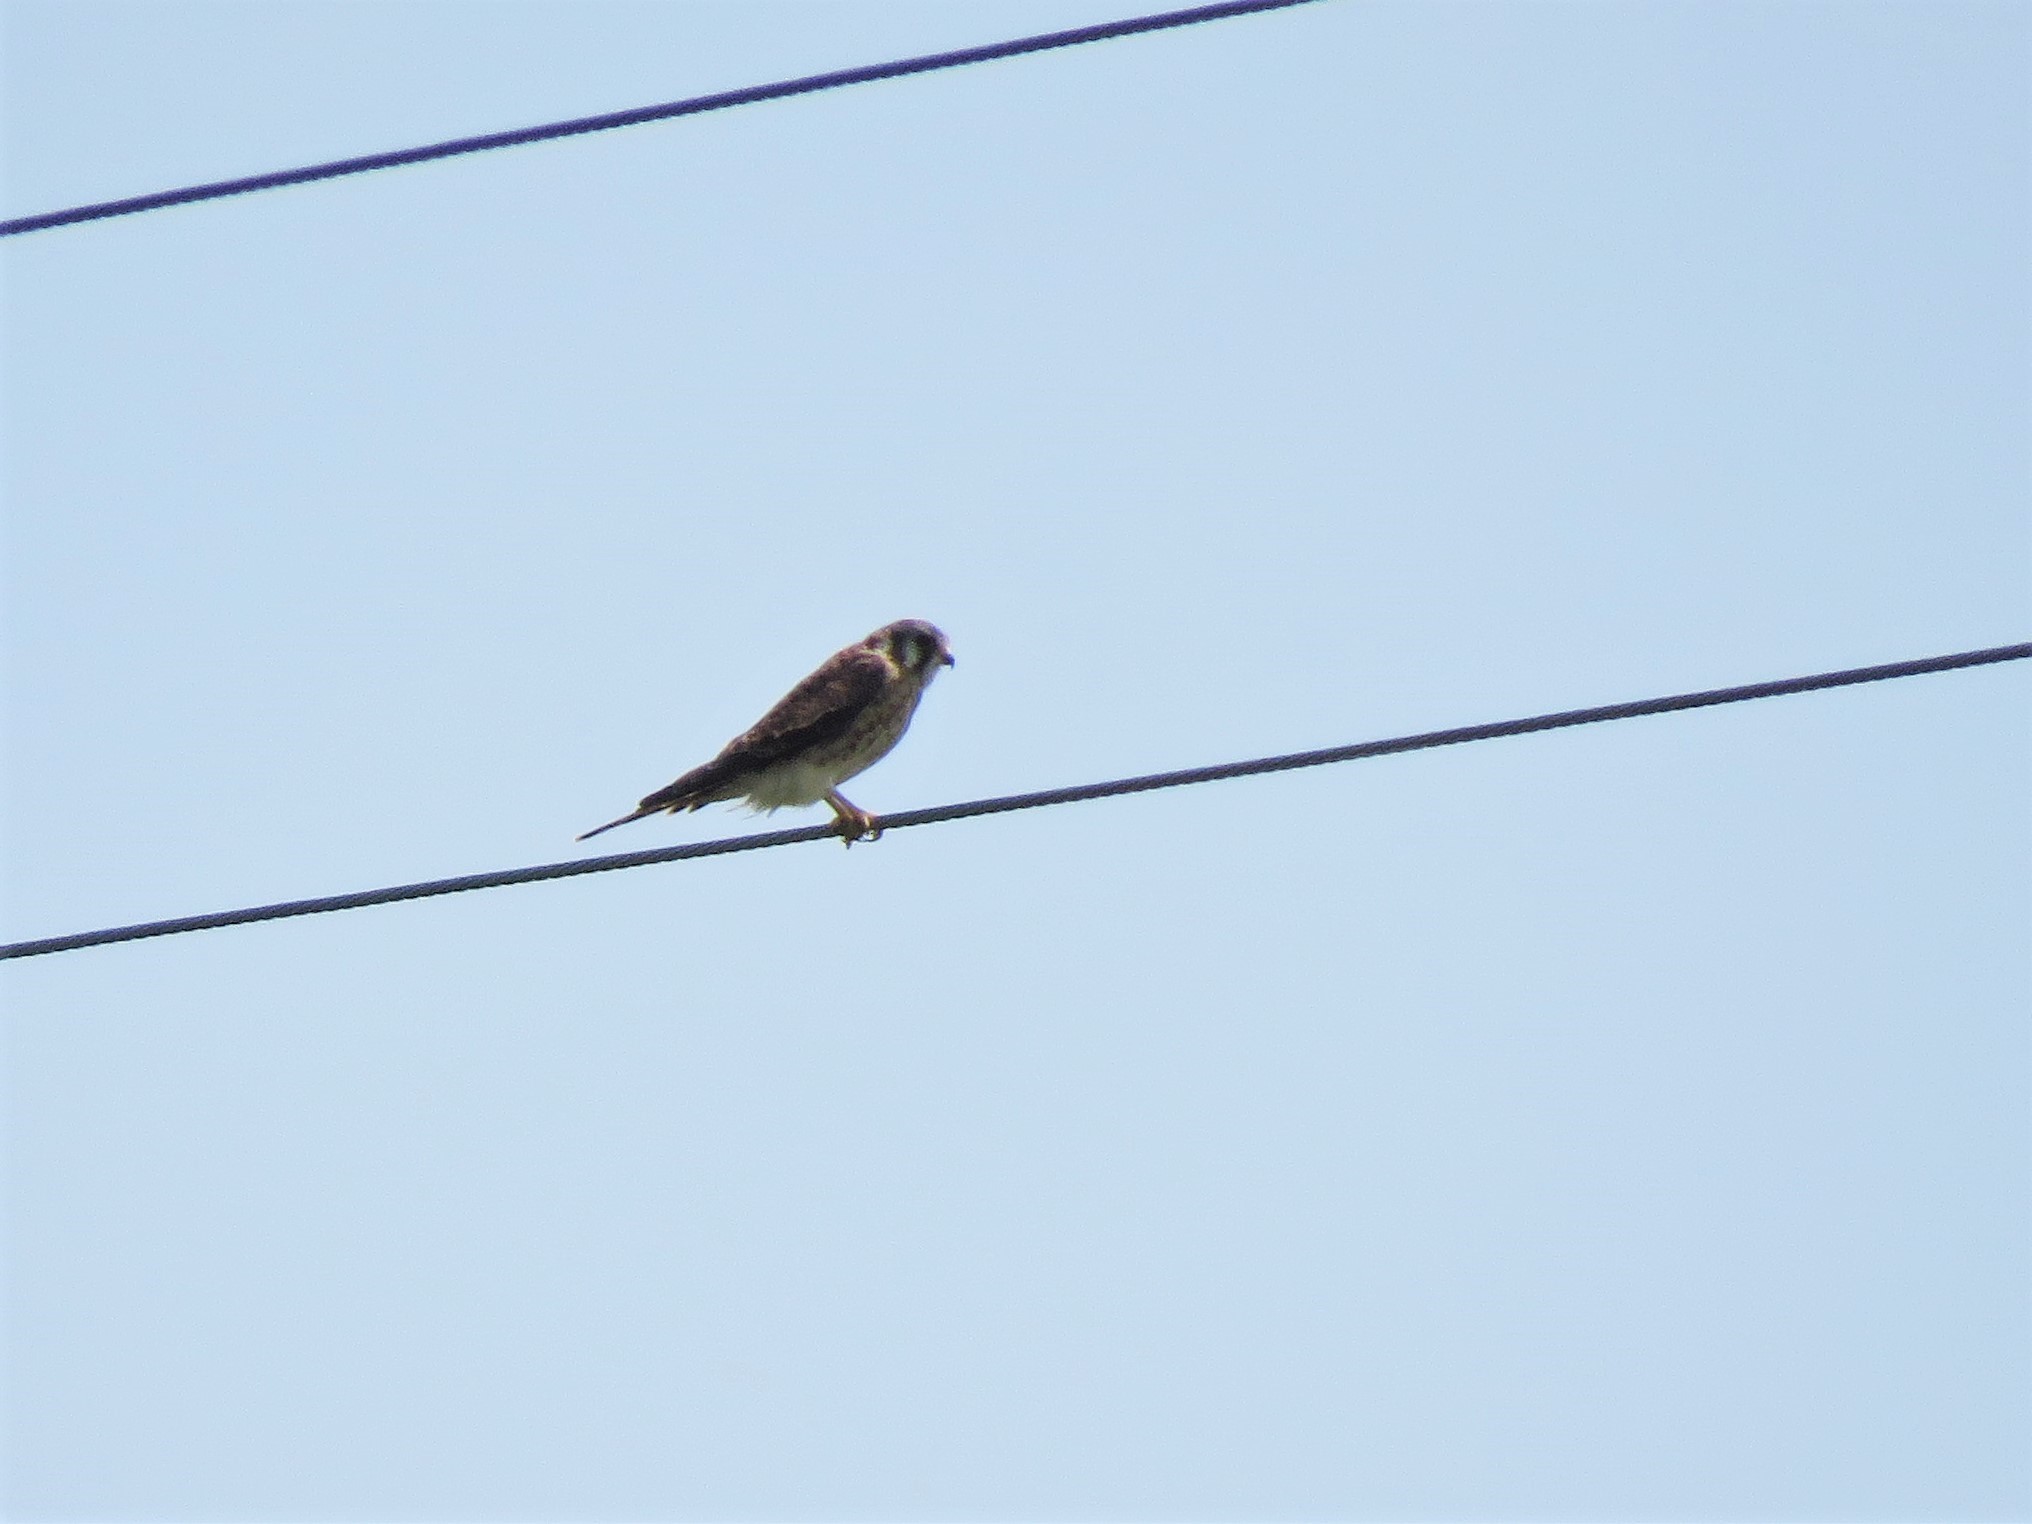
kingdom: Animalia
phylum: Chordata
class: Aves
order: Falconiformes
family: Falconidae
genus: Falco
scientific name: Falco sparverius
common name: American kestrel
